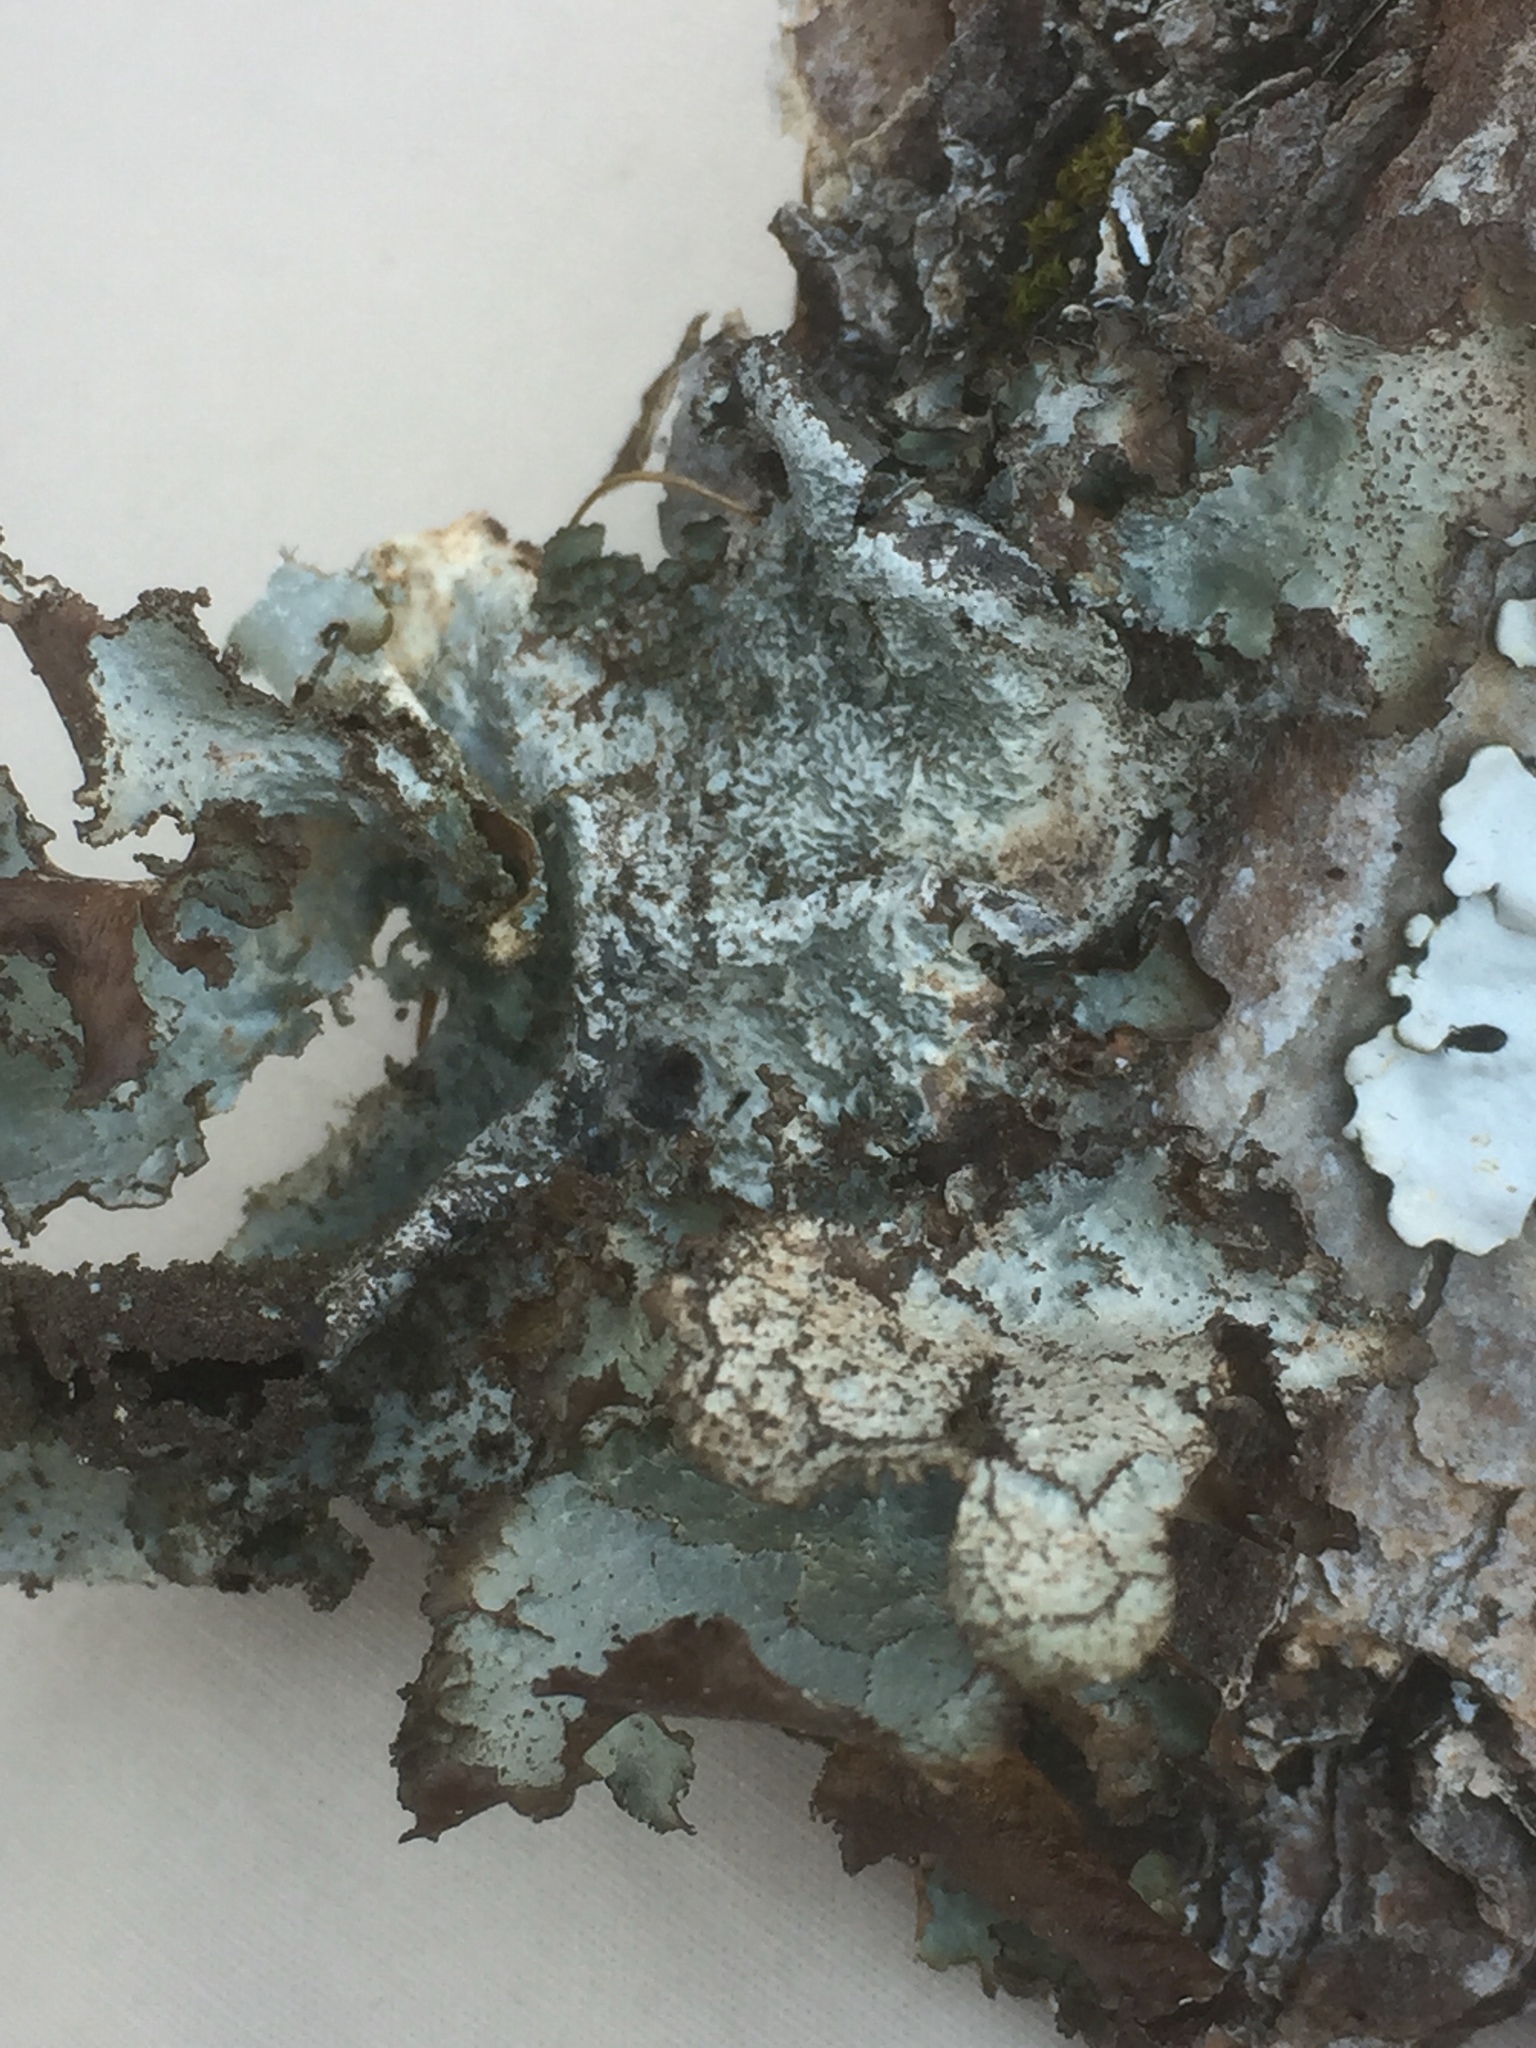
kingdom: Fungi
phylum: Ascomycota
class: Lecanoromycetes
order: Lecanorales
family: Parmeliaceae
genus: Platismatia
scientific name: Platismatia glauca
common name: Varied rag lichen
